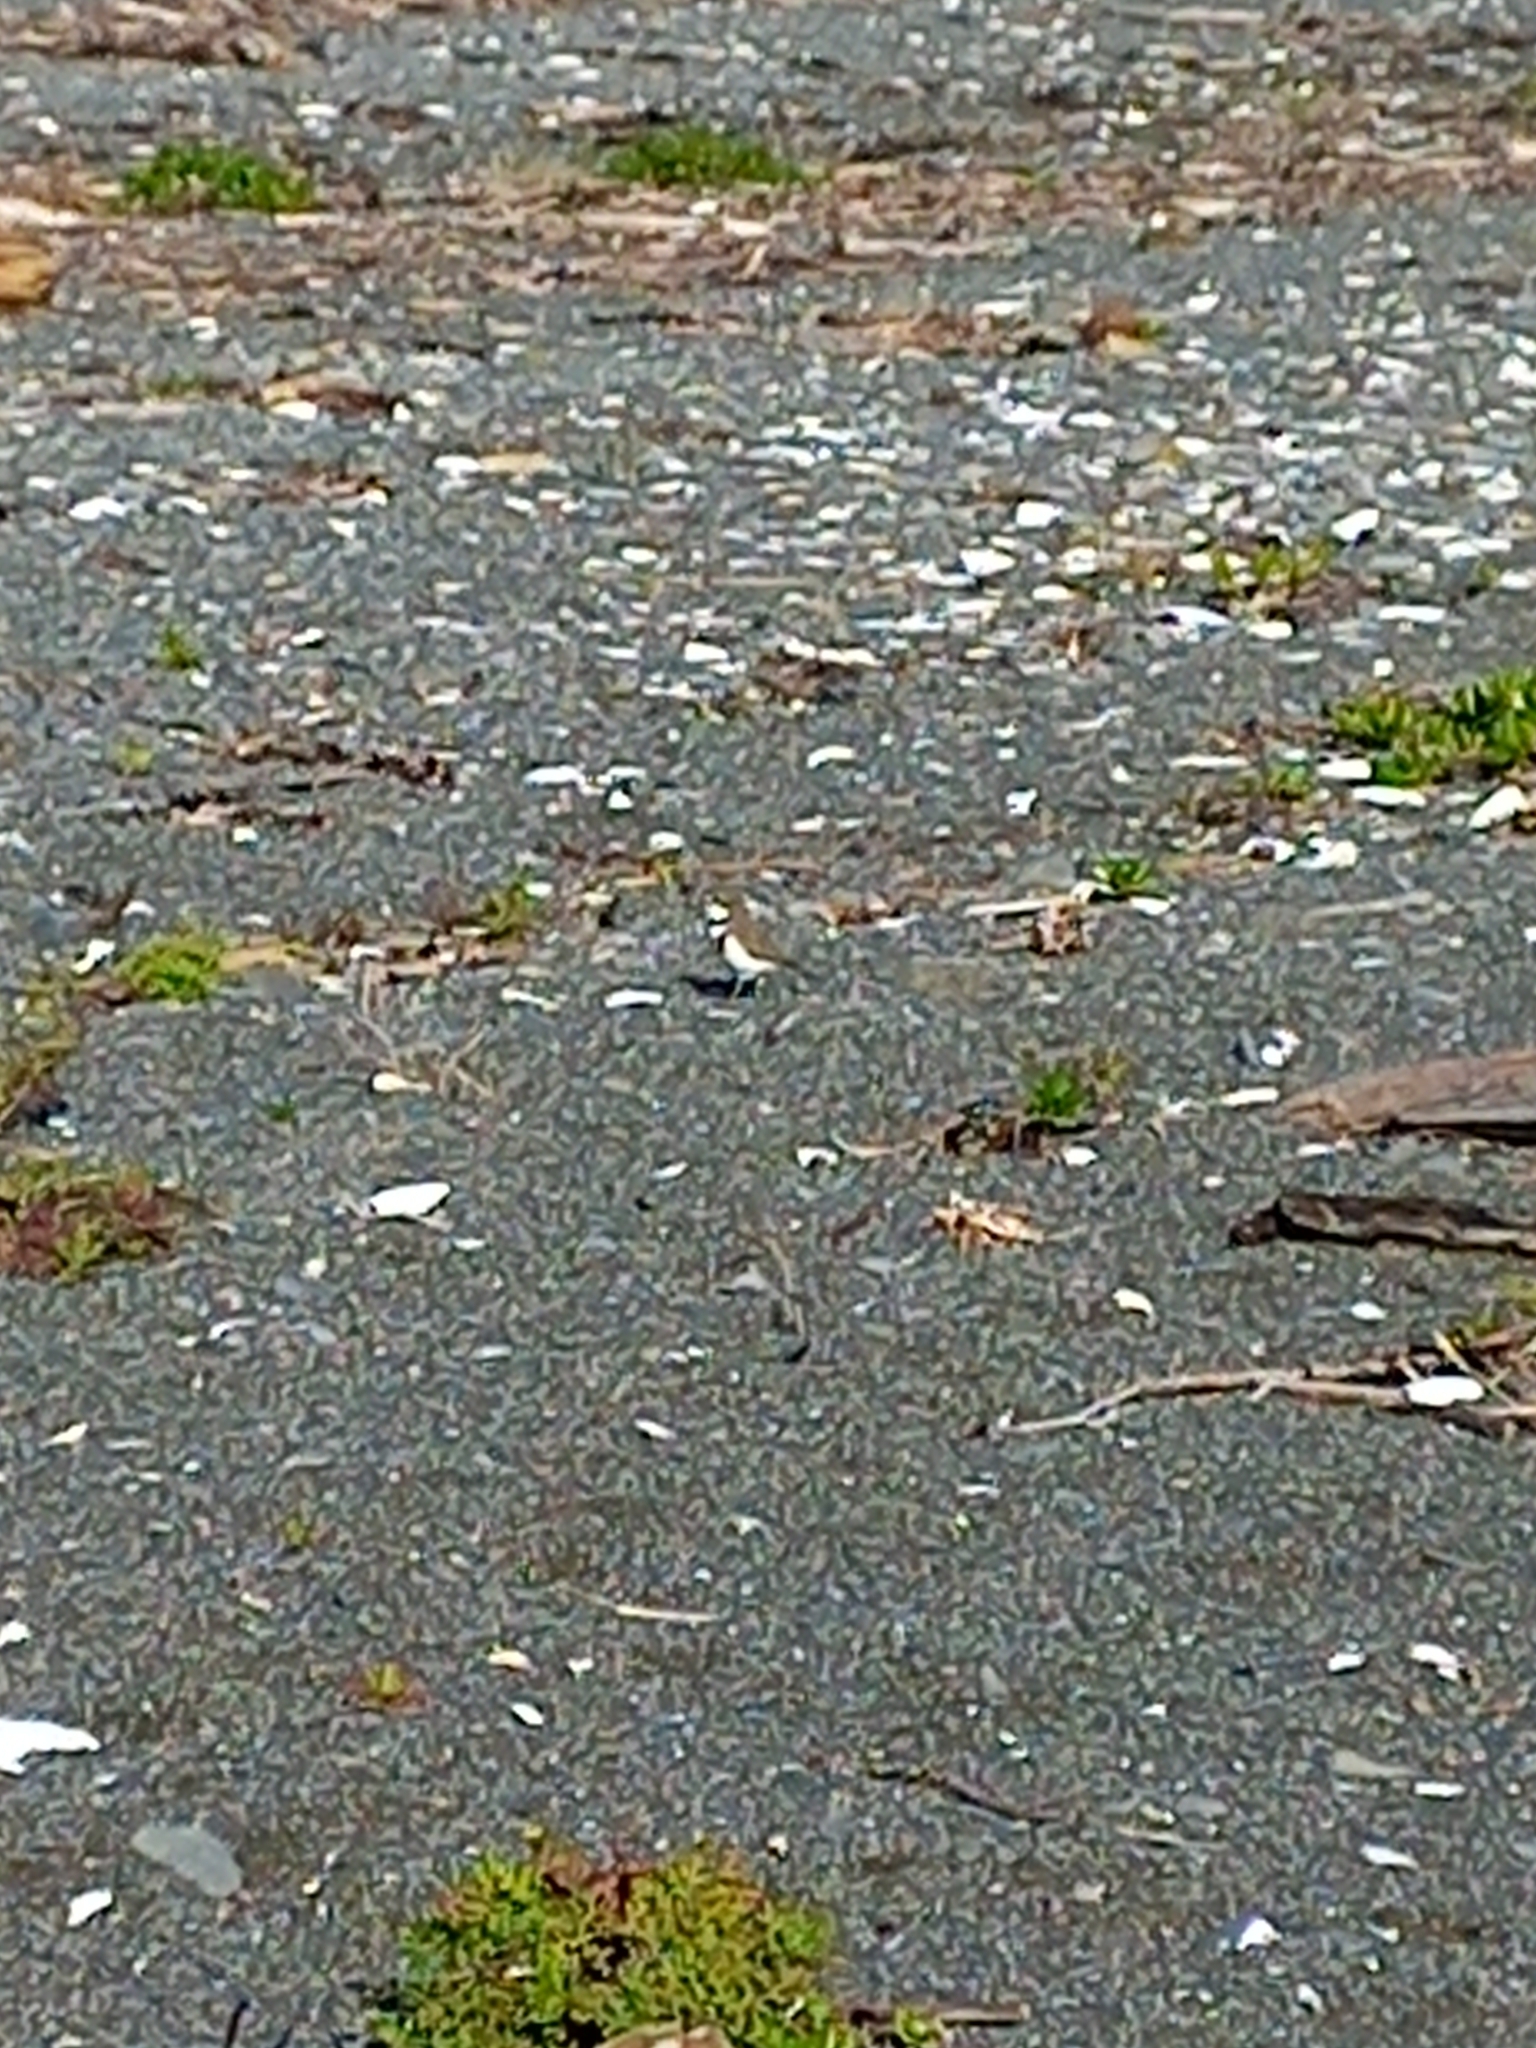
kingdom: Animalia
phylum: Chordata
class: Aves
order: Charadriiformes
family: Charadriidae
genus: Anarhynchus
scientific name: Anarhynchus
